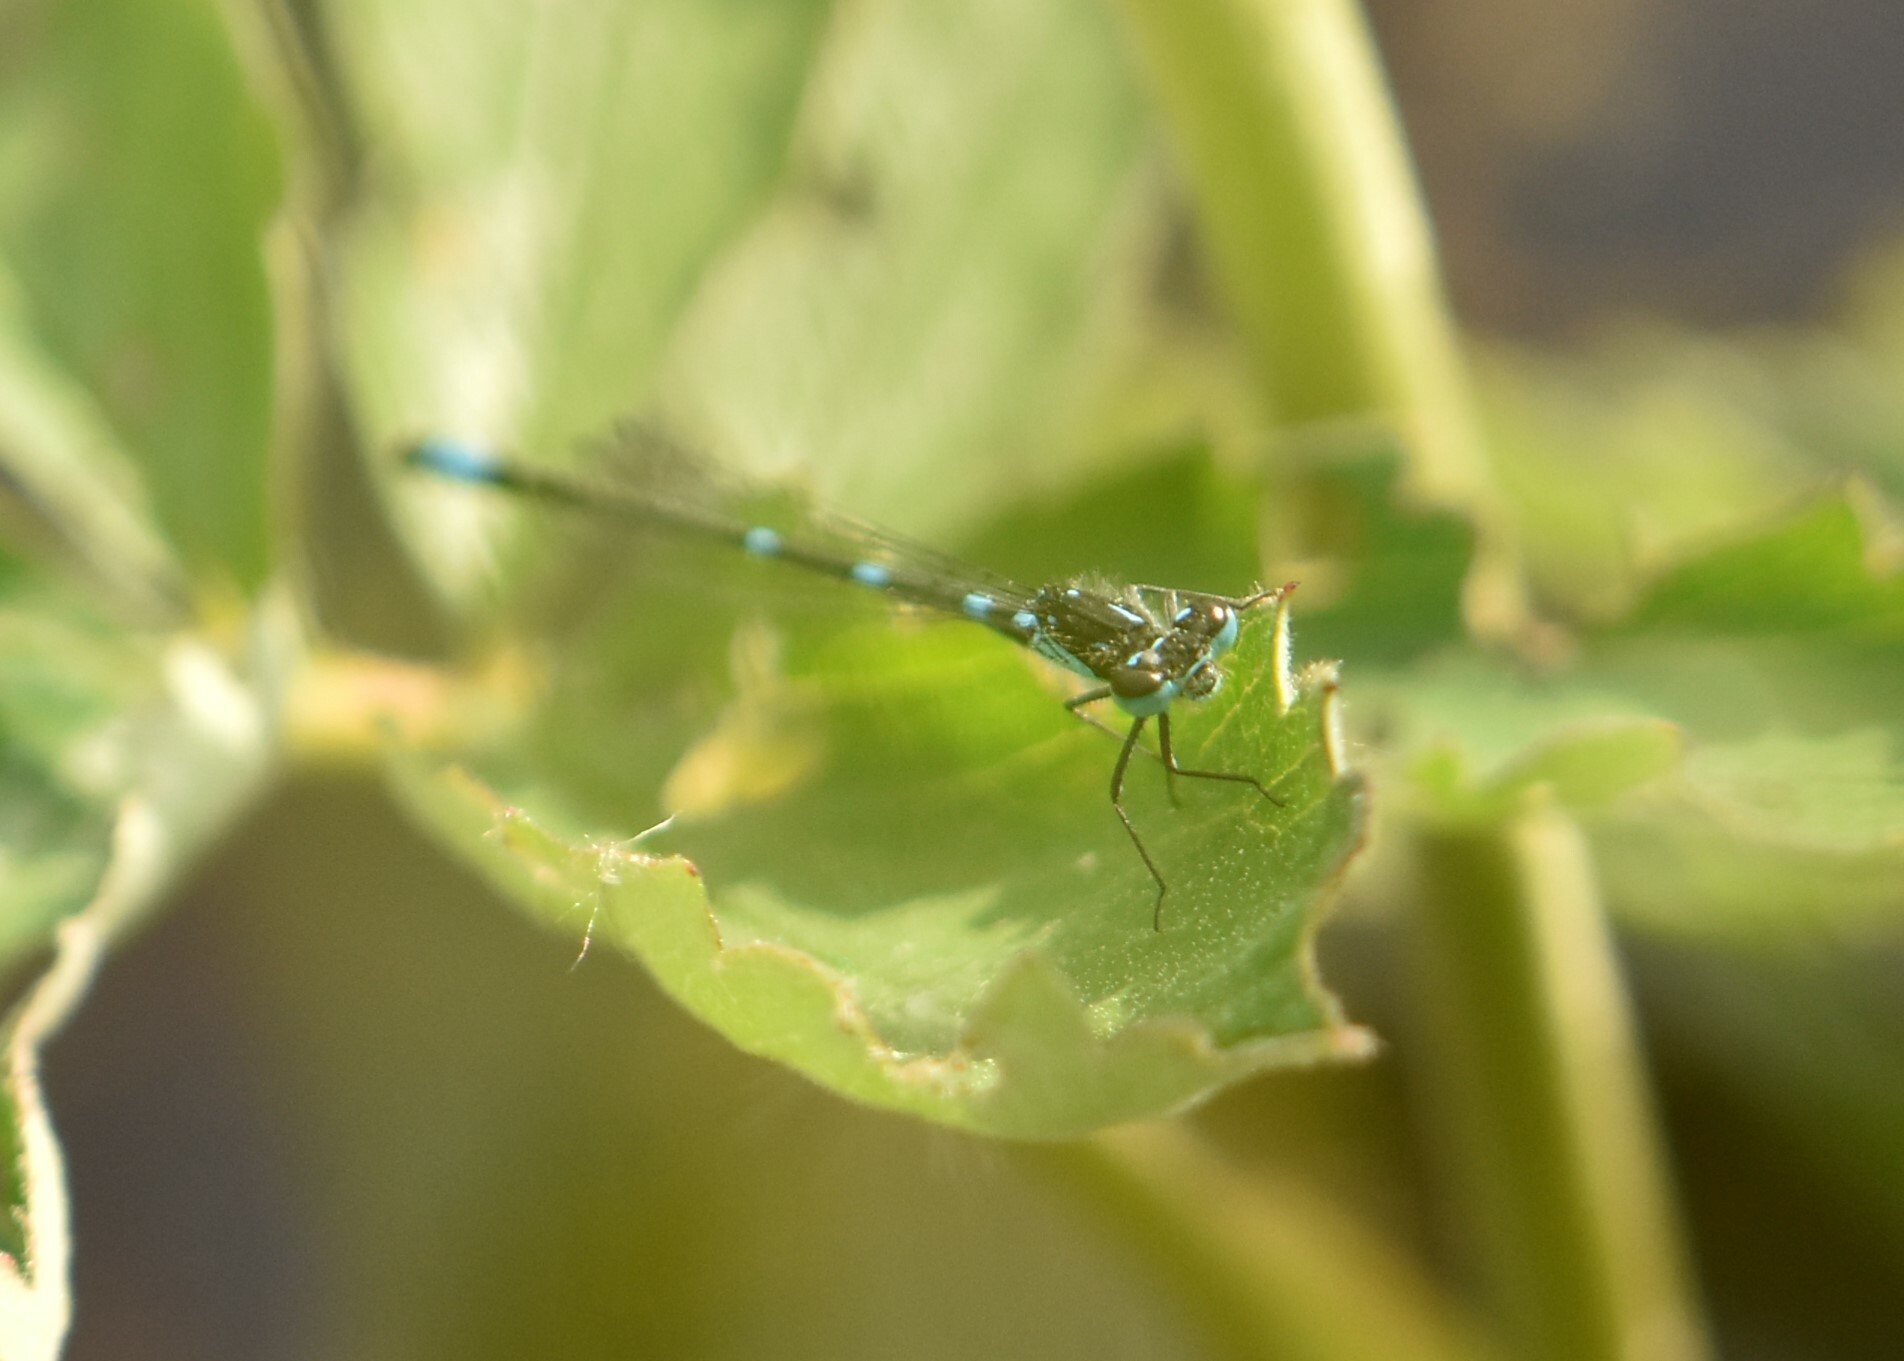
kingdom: Animalia
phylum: Arthropoda
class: Insecta
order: Odonata
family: Coenagrionidae
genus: Coenagrion
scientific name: Coenagrion pulchellum
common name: Variable bluet
